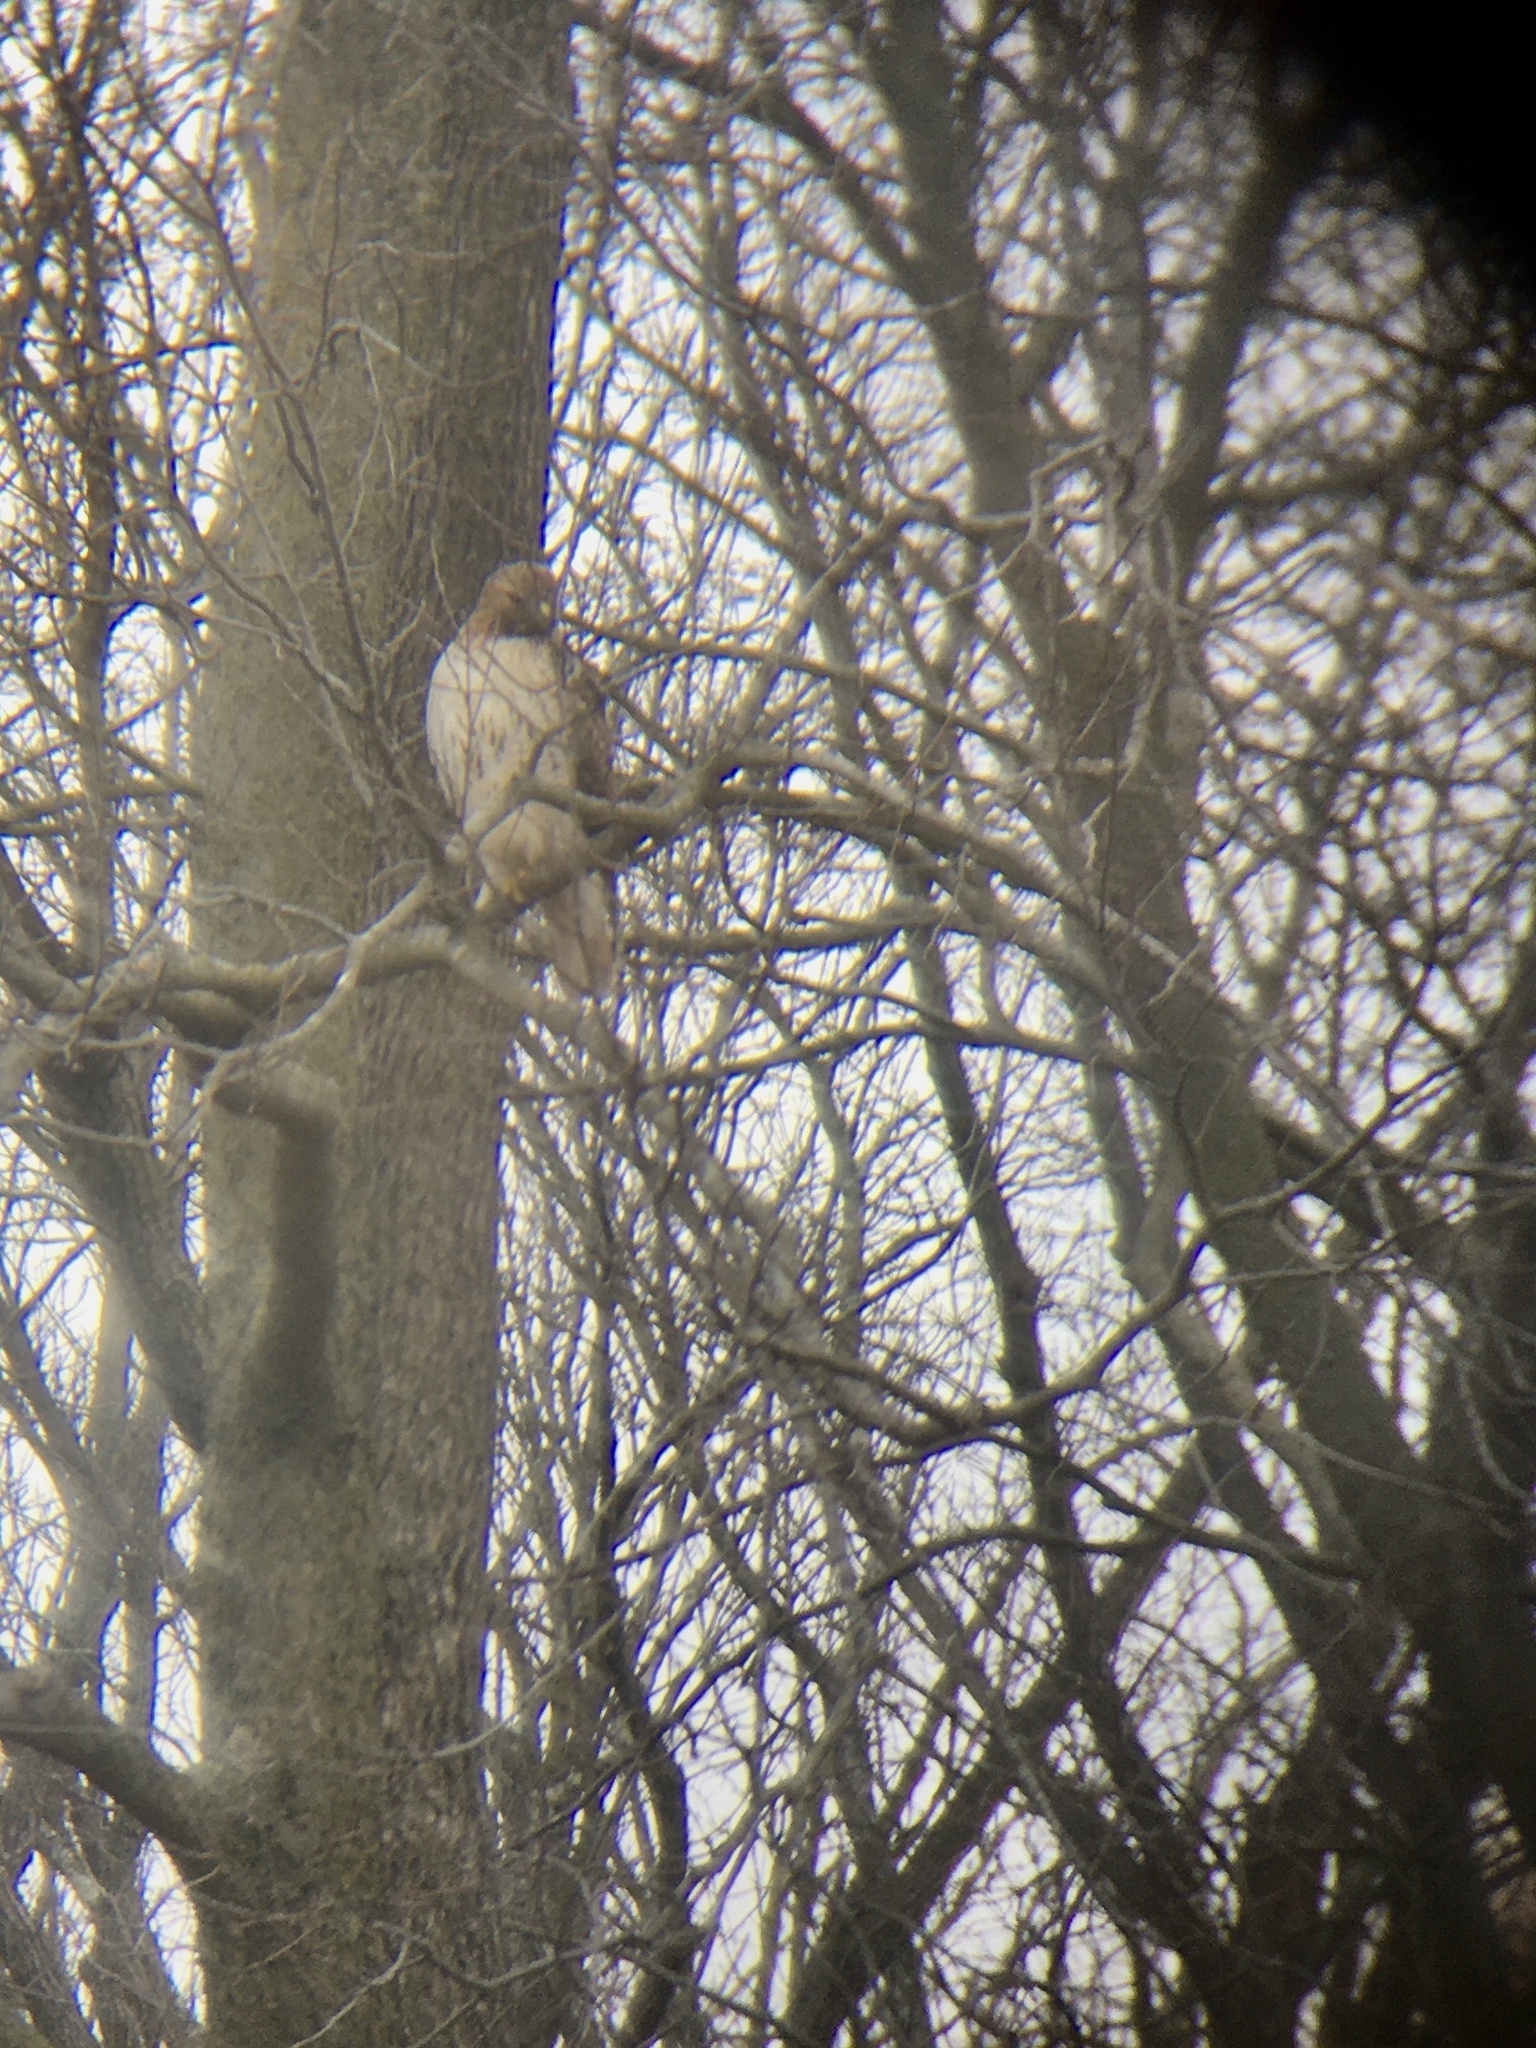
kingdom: Animalia
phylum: Chordata
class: Aves
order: Accipitriformes
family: Accipitridae
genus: Buteo
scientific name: Buteo jamaicensis
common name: Red-tailed hawk
